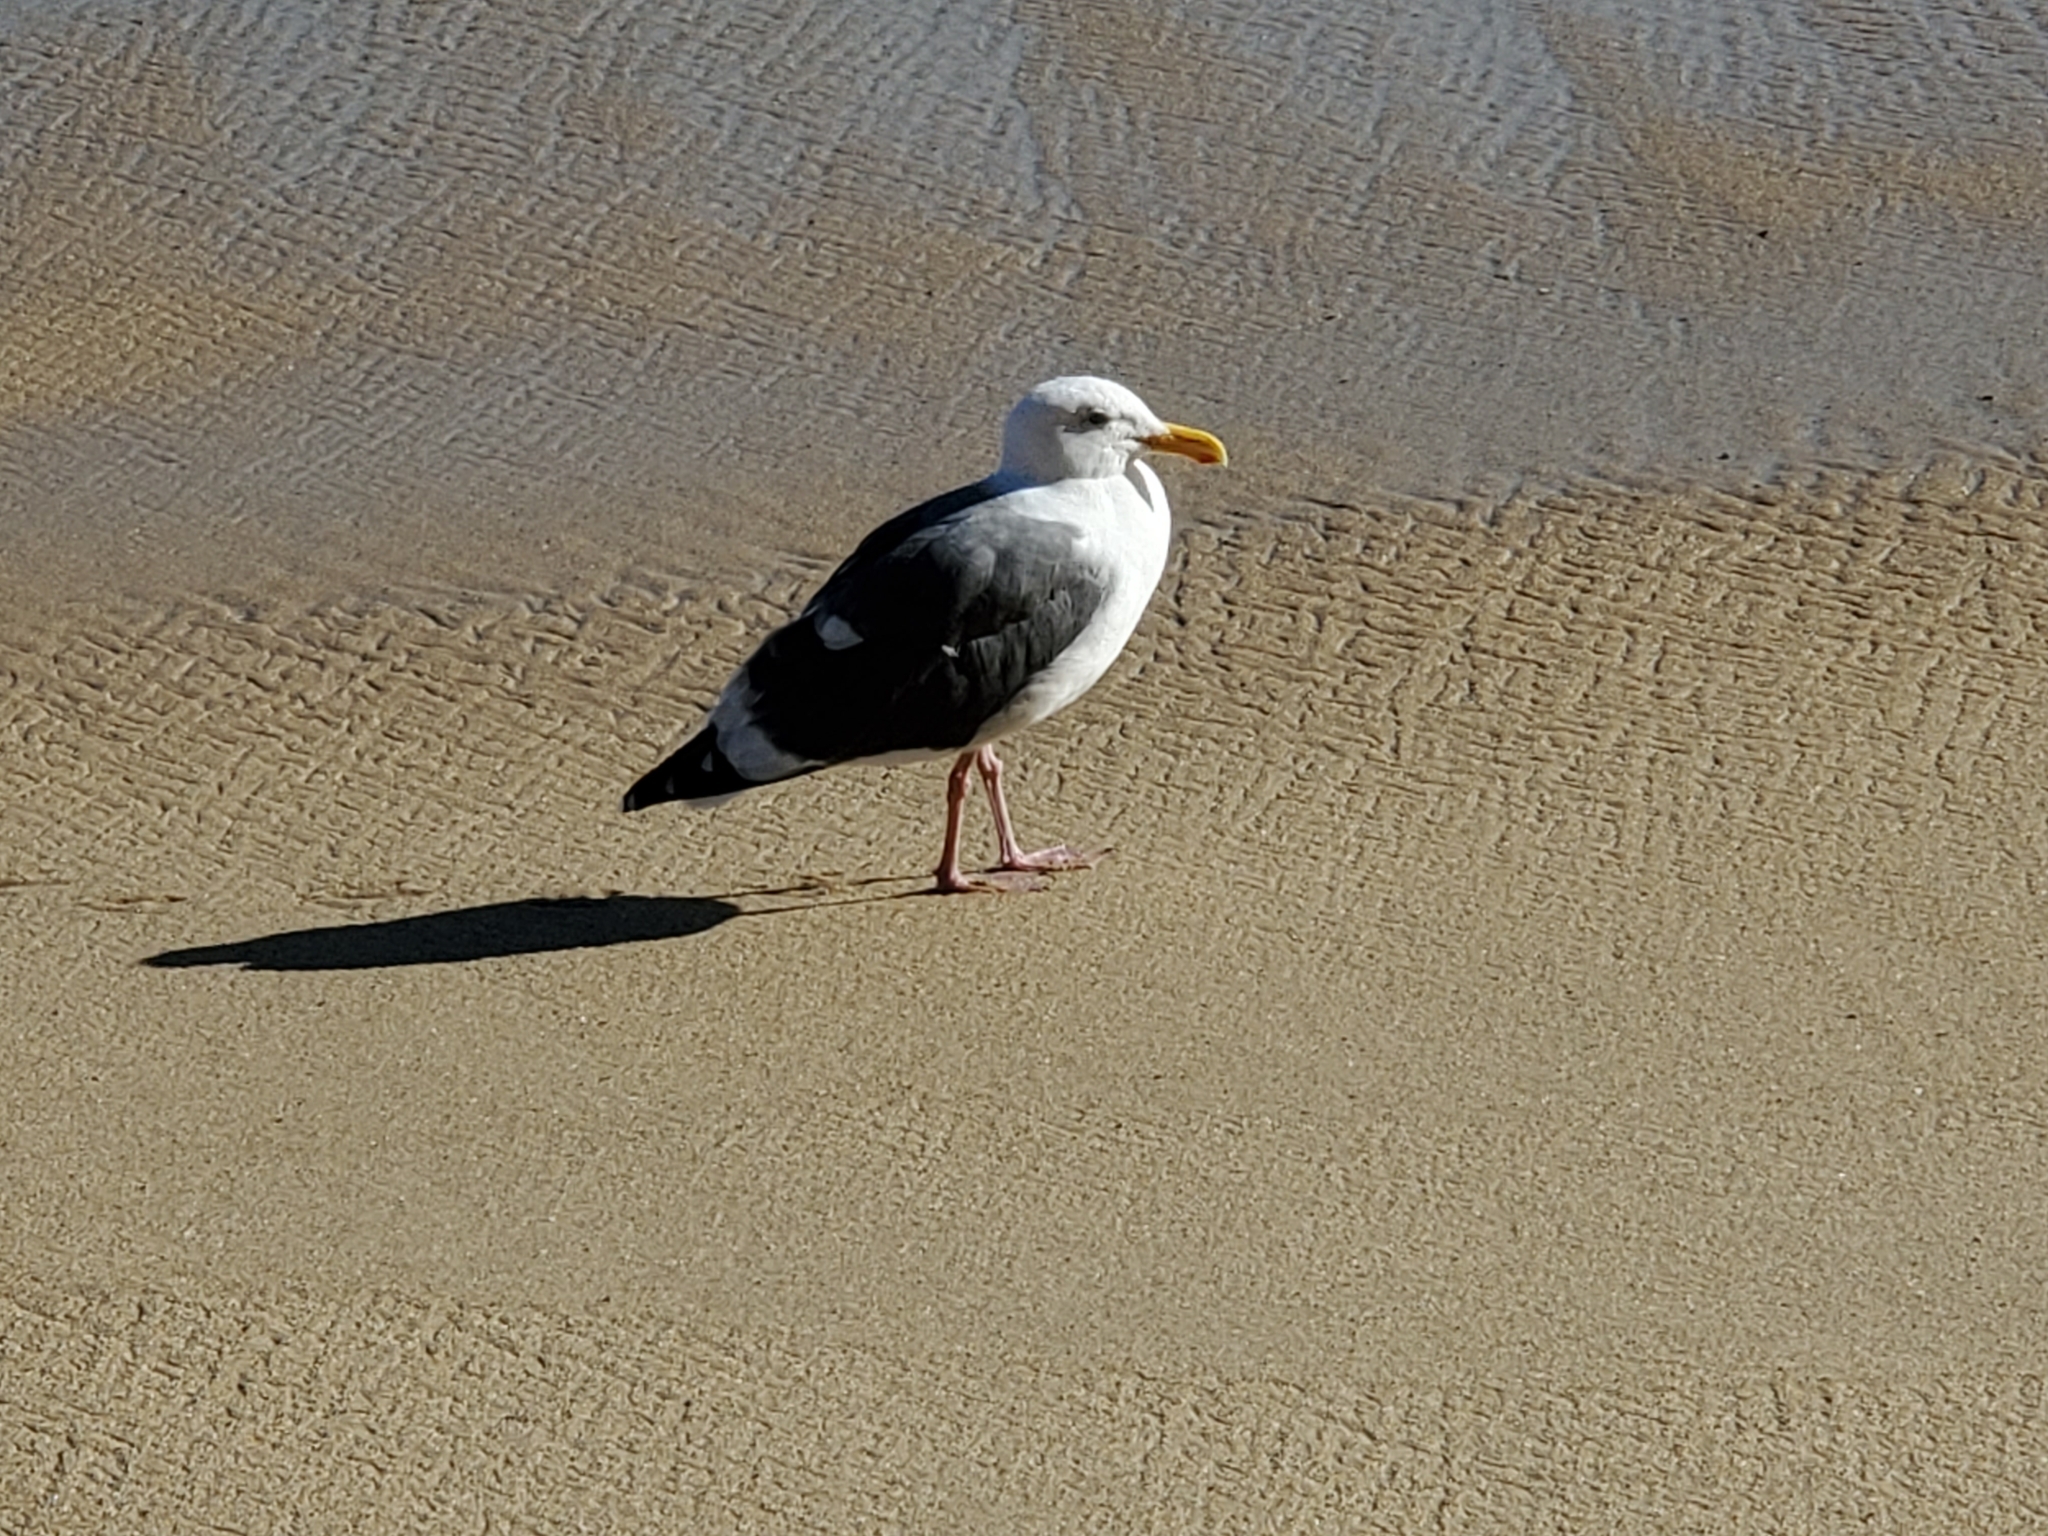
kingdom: Animalia
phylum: Chordata
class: Aves
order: Charadriiformes
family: Laridae
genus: Larus
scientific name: Larus occidentalis
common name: Western gull
